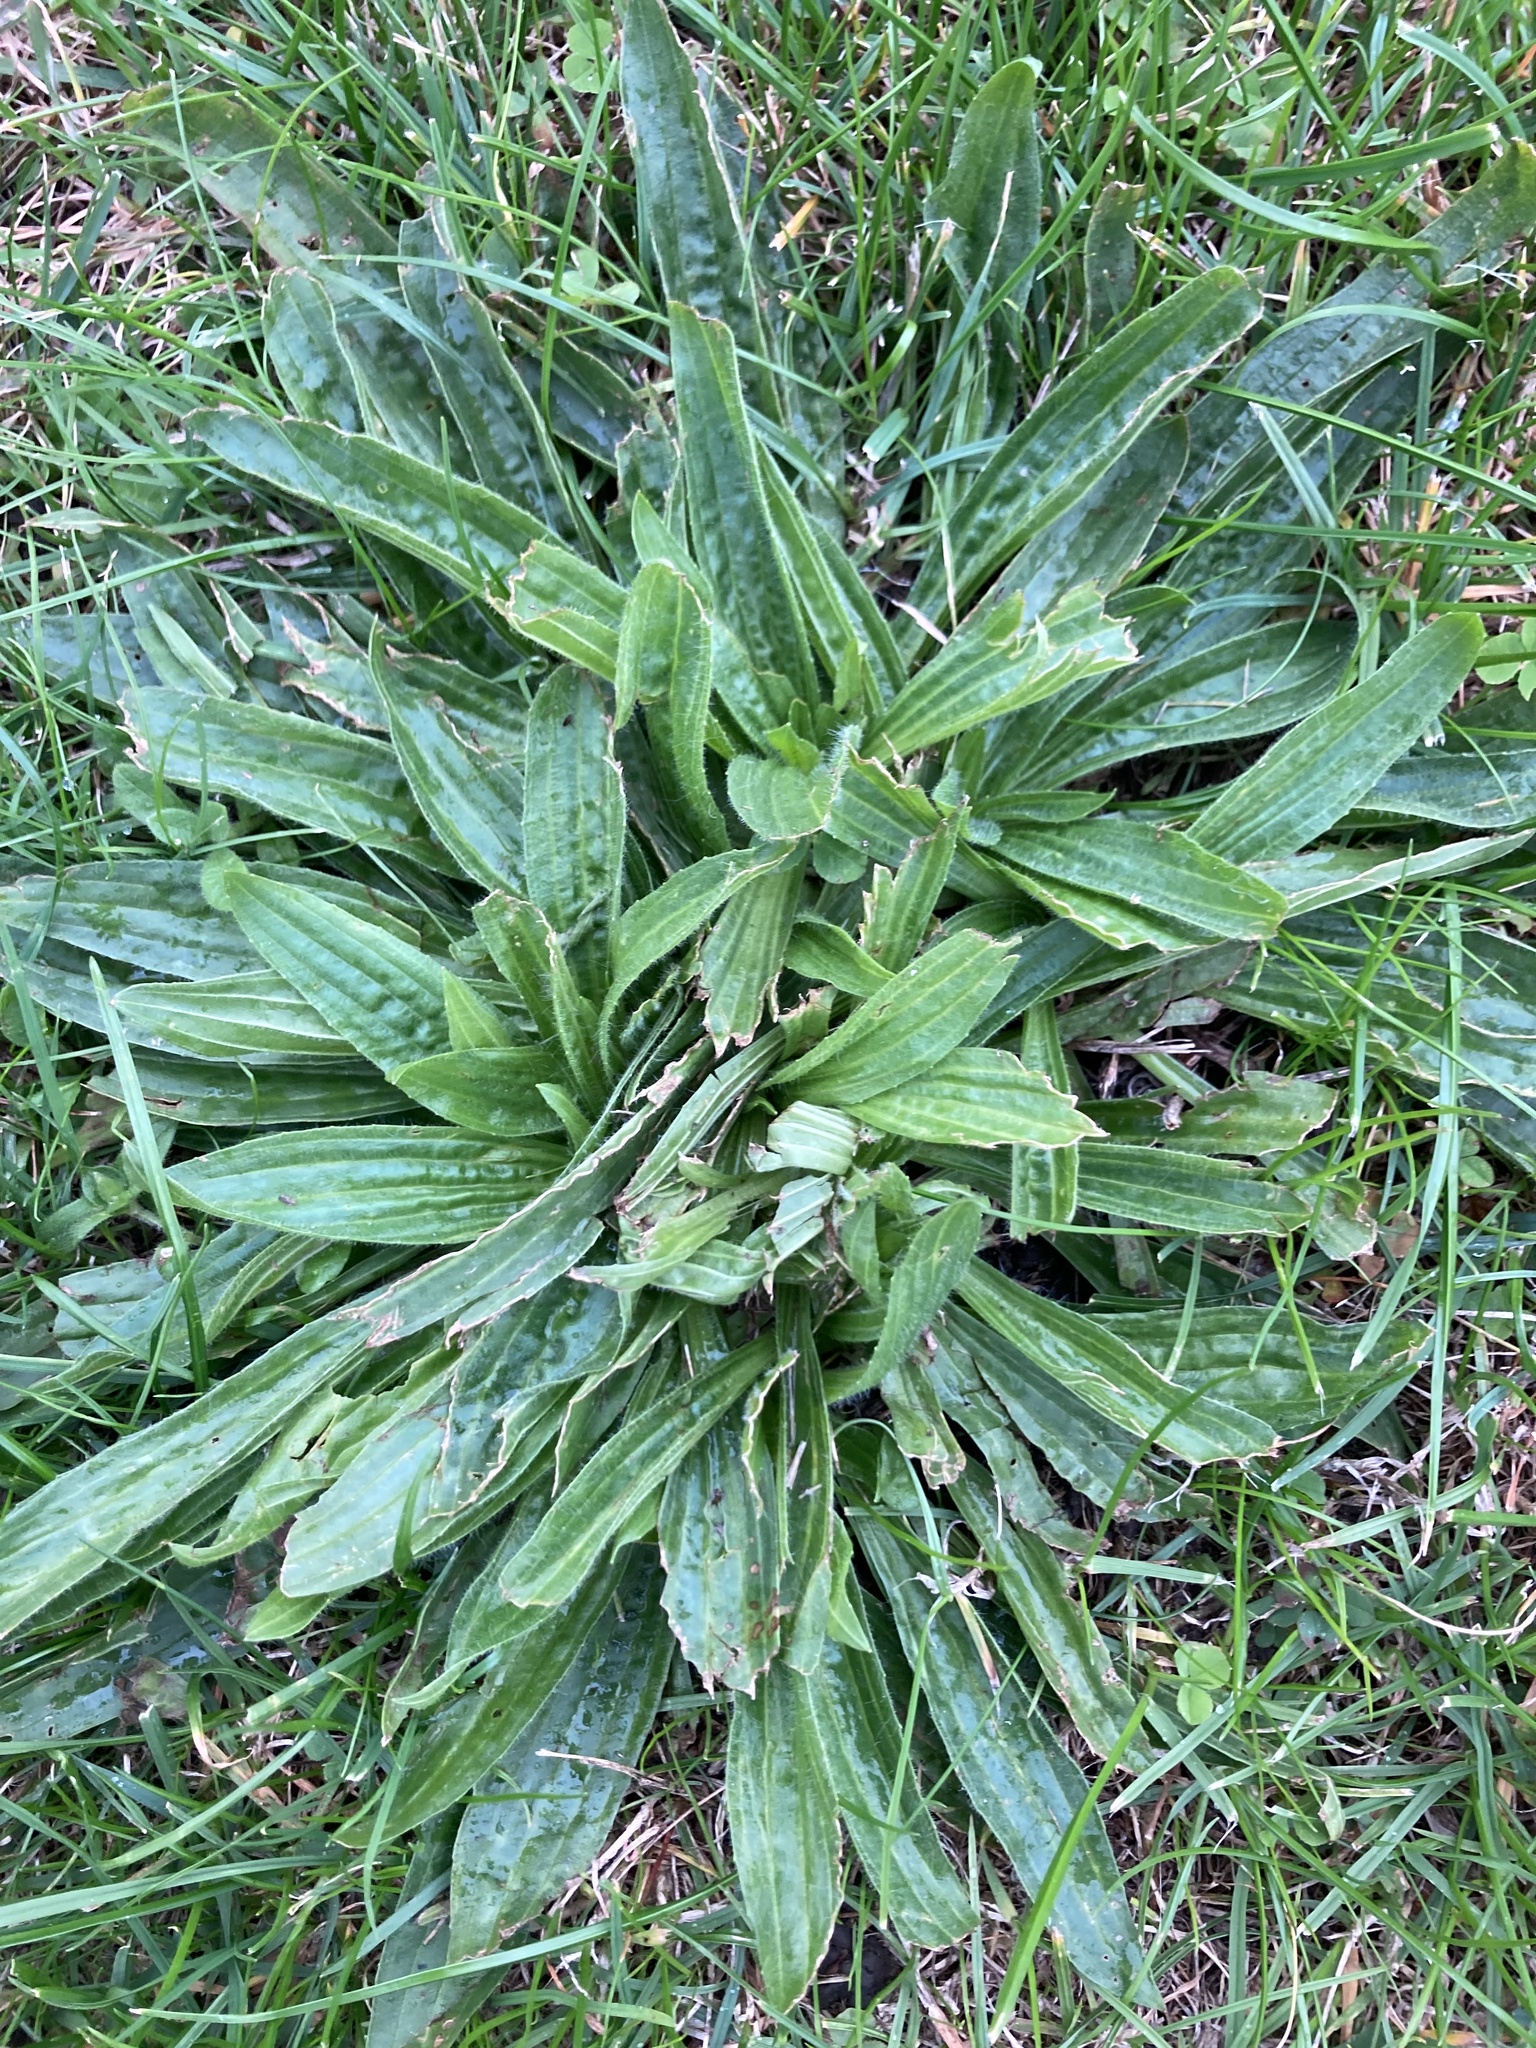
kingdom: Plantae
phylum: Tracheophyta
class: Magnoliopsida
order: Lamiales
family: Plantaginaceae
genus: Plantago
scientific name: Plantago lanceolata
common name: Ribwort plantain
